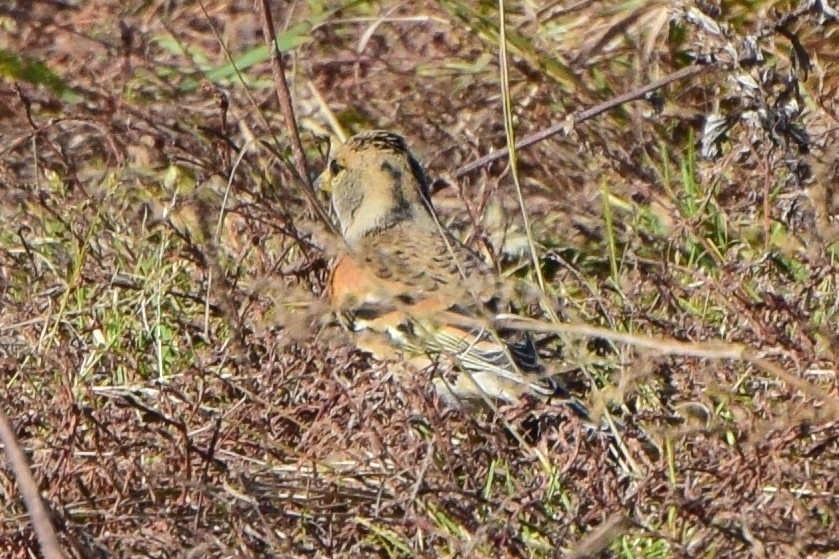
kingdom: Animalia
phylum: Chordata
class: Aves
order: Passeriformes
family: Fringillidae
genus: Fringilla
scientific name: Fringilla montifringilla
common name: Brambling
